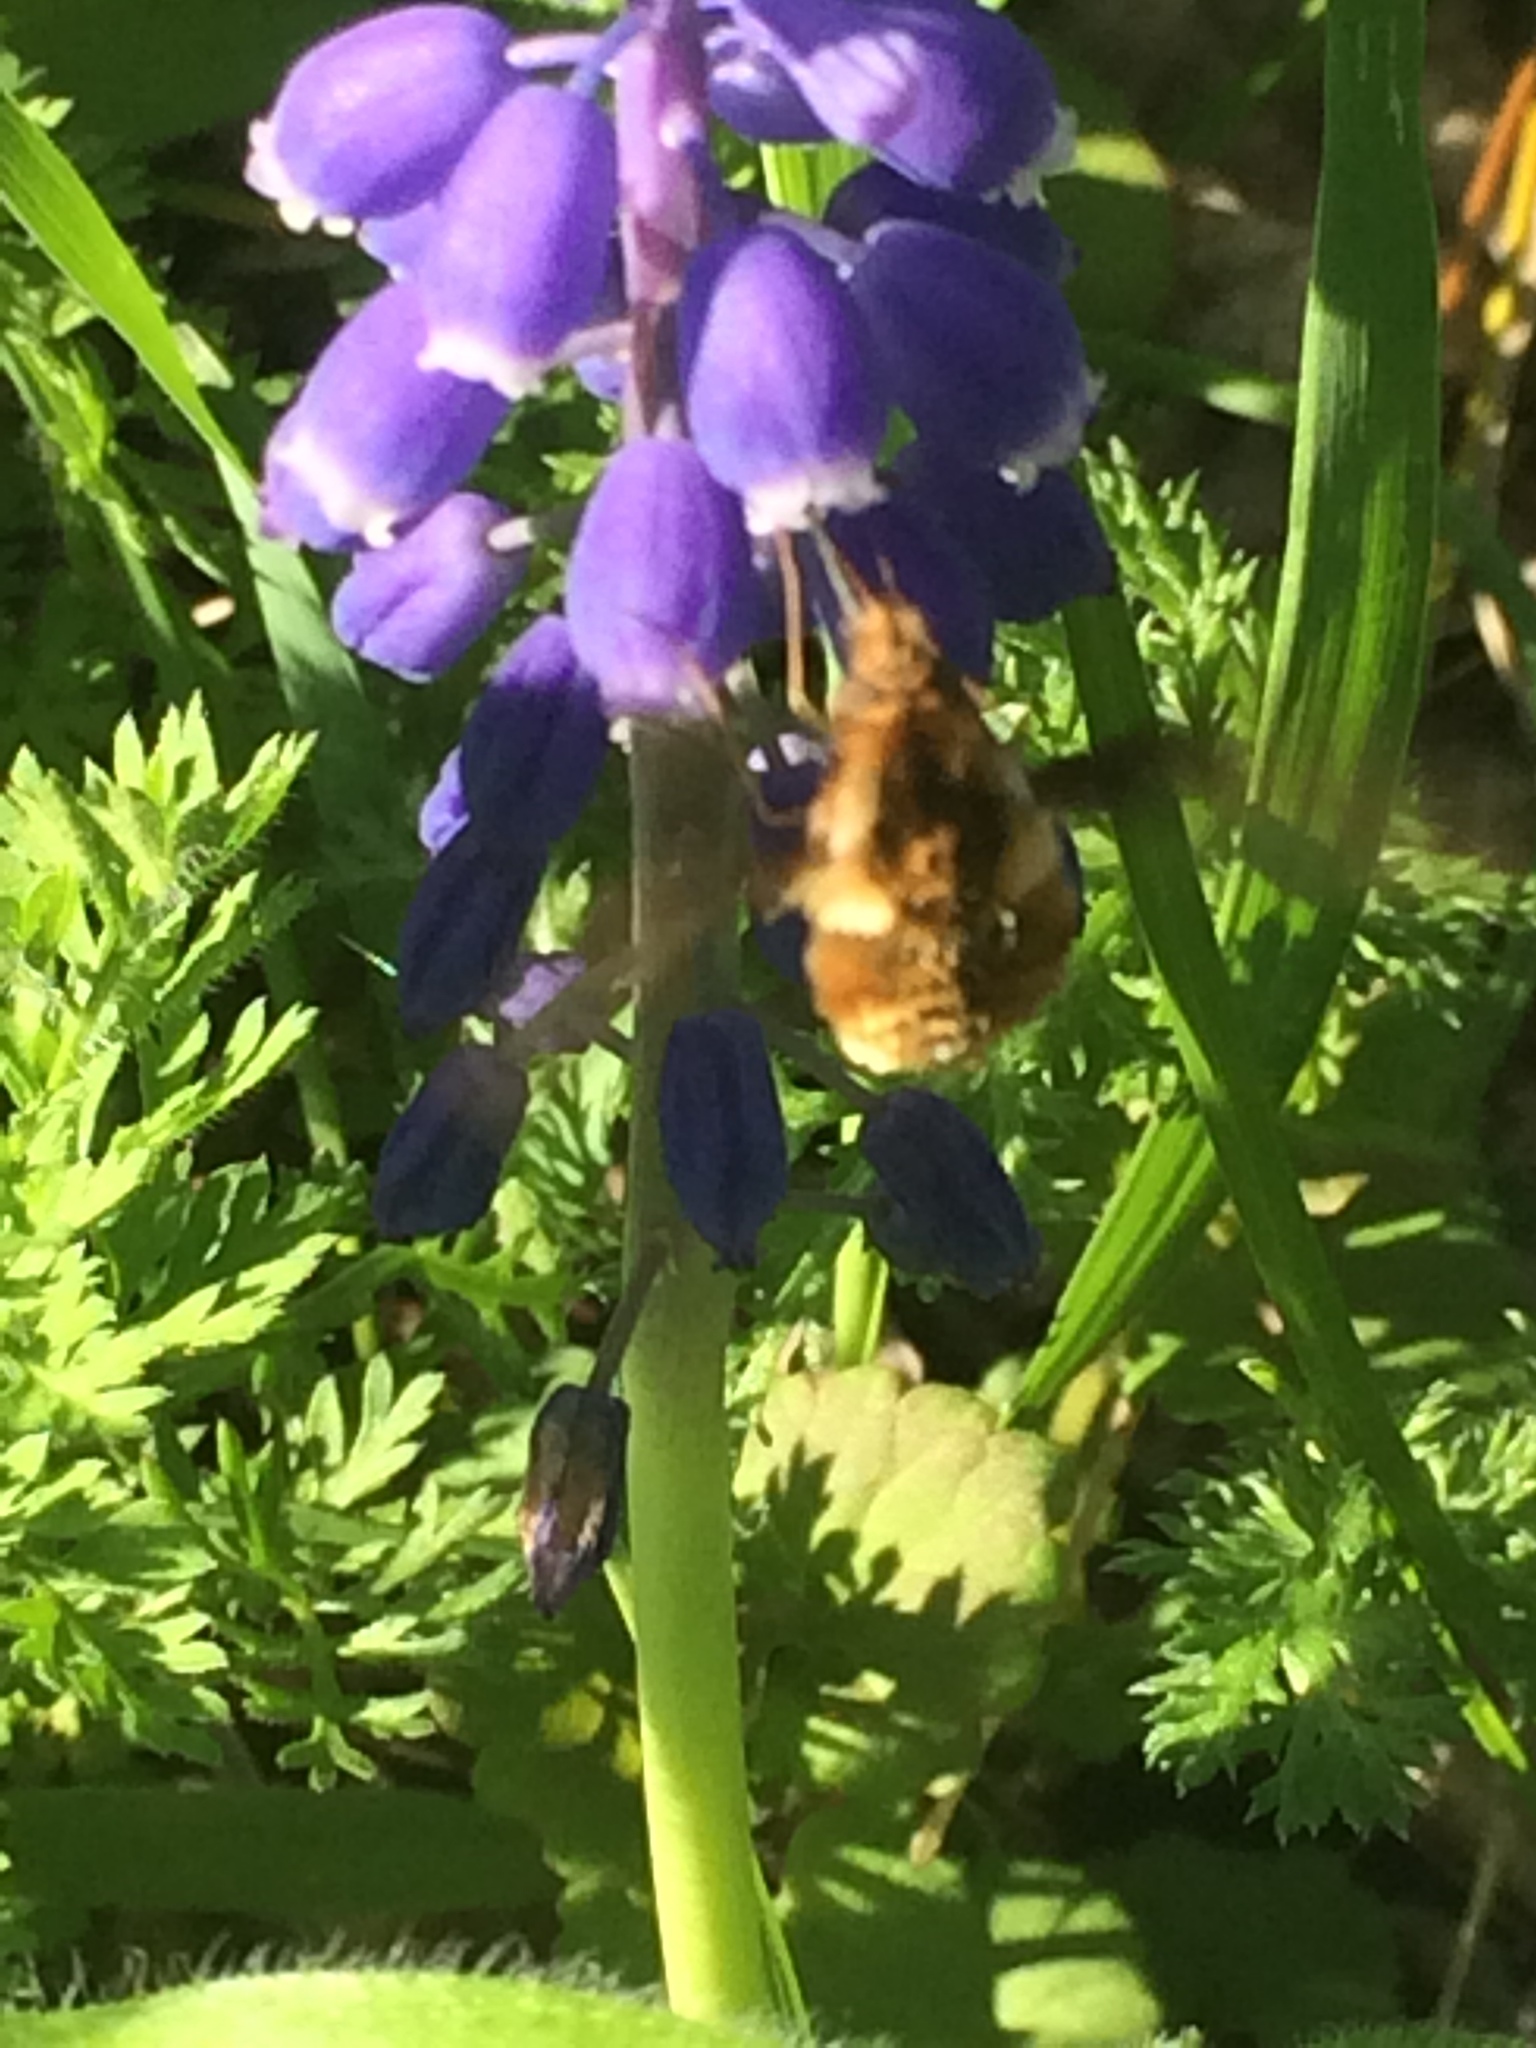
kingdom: Animalia
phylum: Arthropoda
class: Insecta
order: Diptera
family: Bombyliidae
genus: Bombylius
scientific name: Bombylius major
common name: Bee fly
